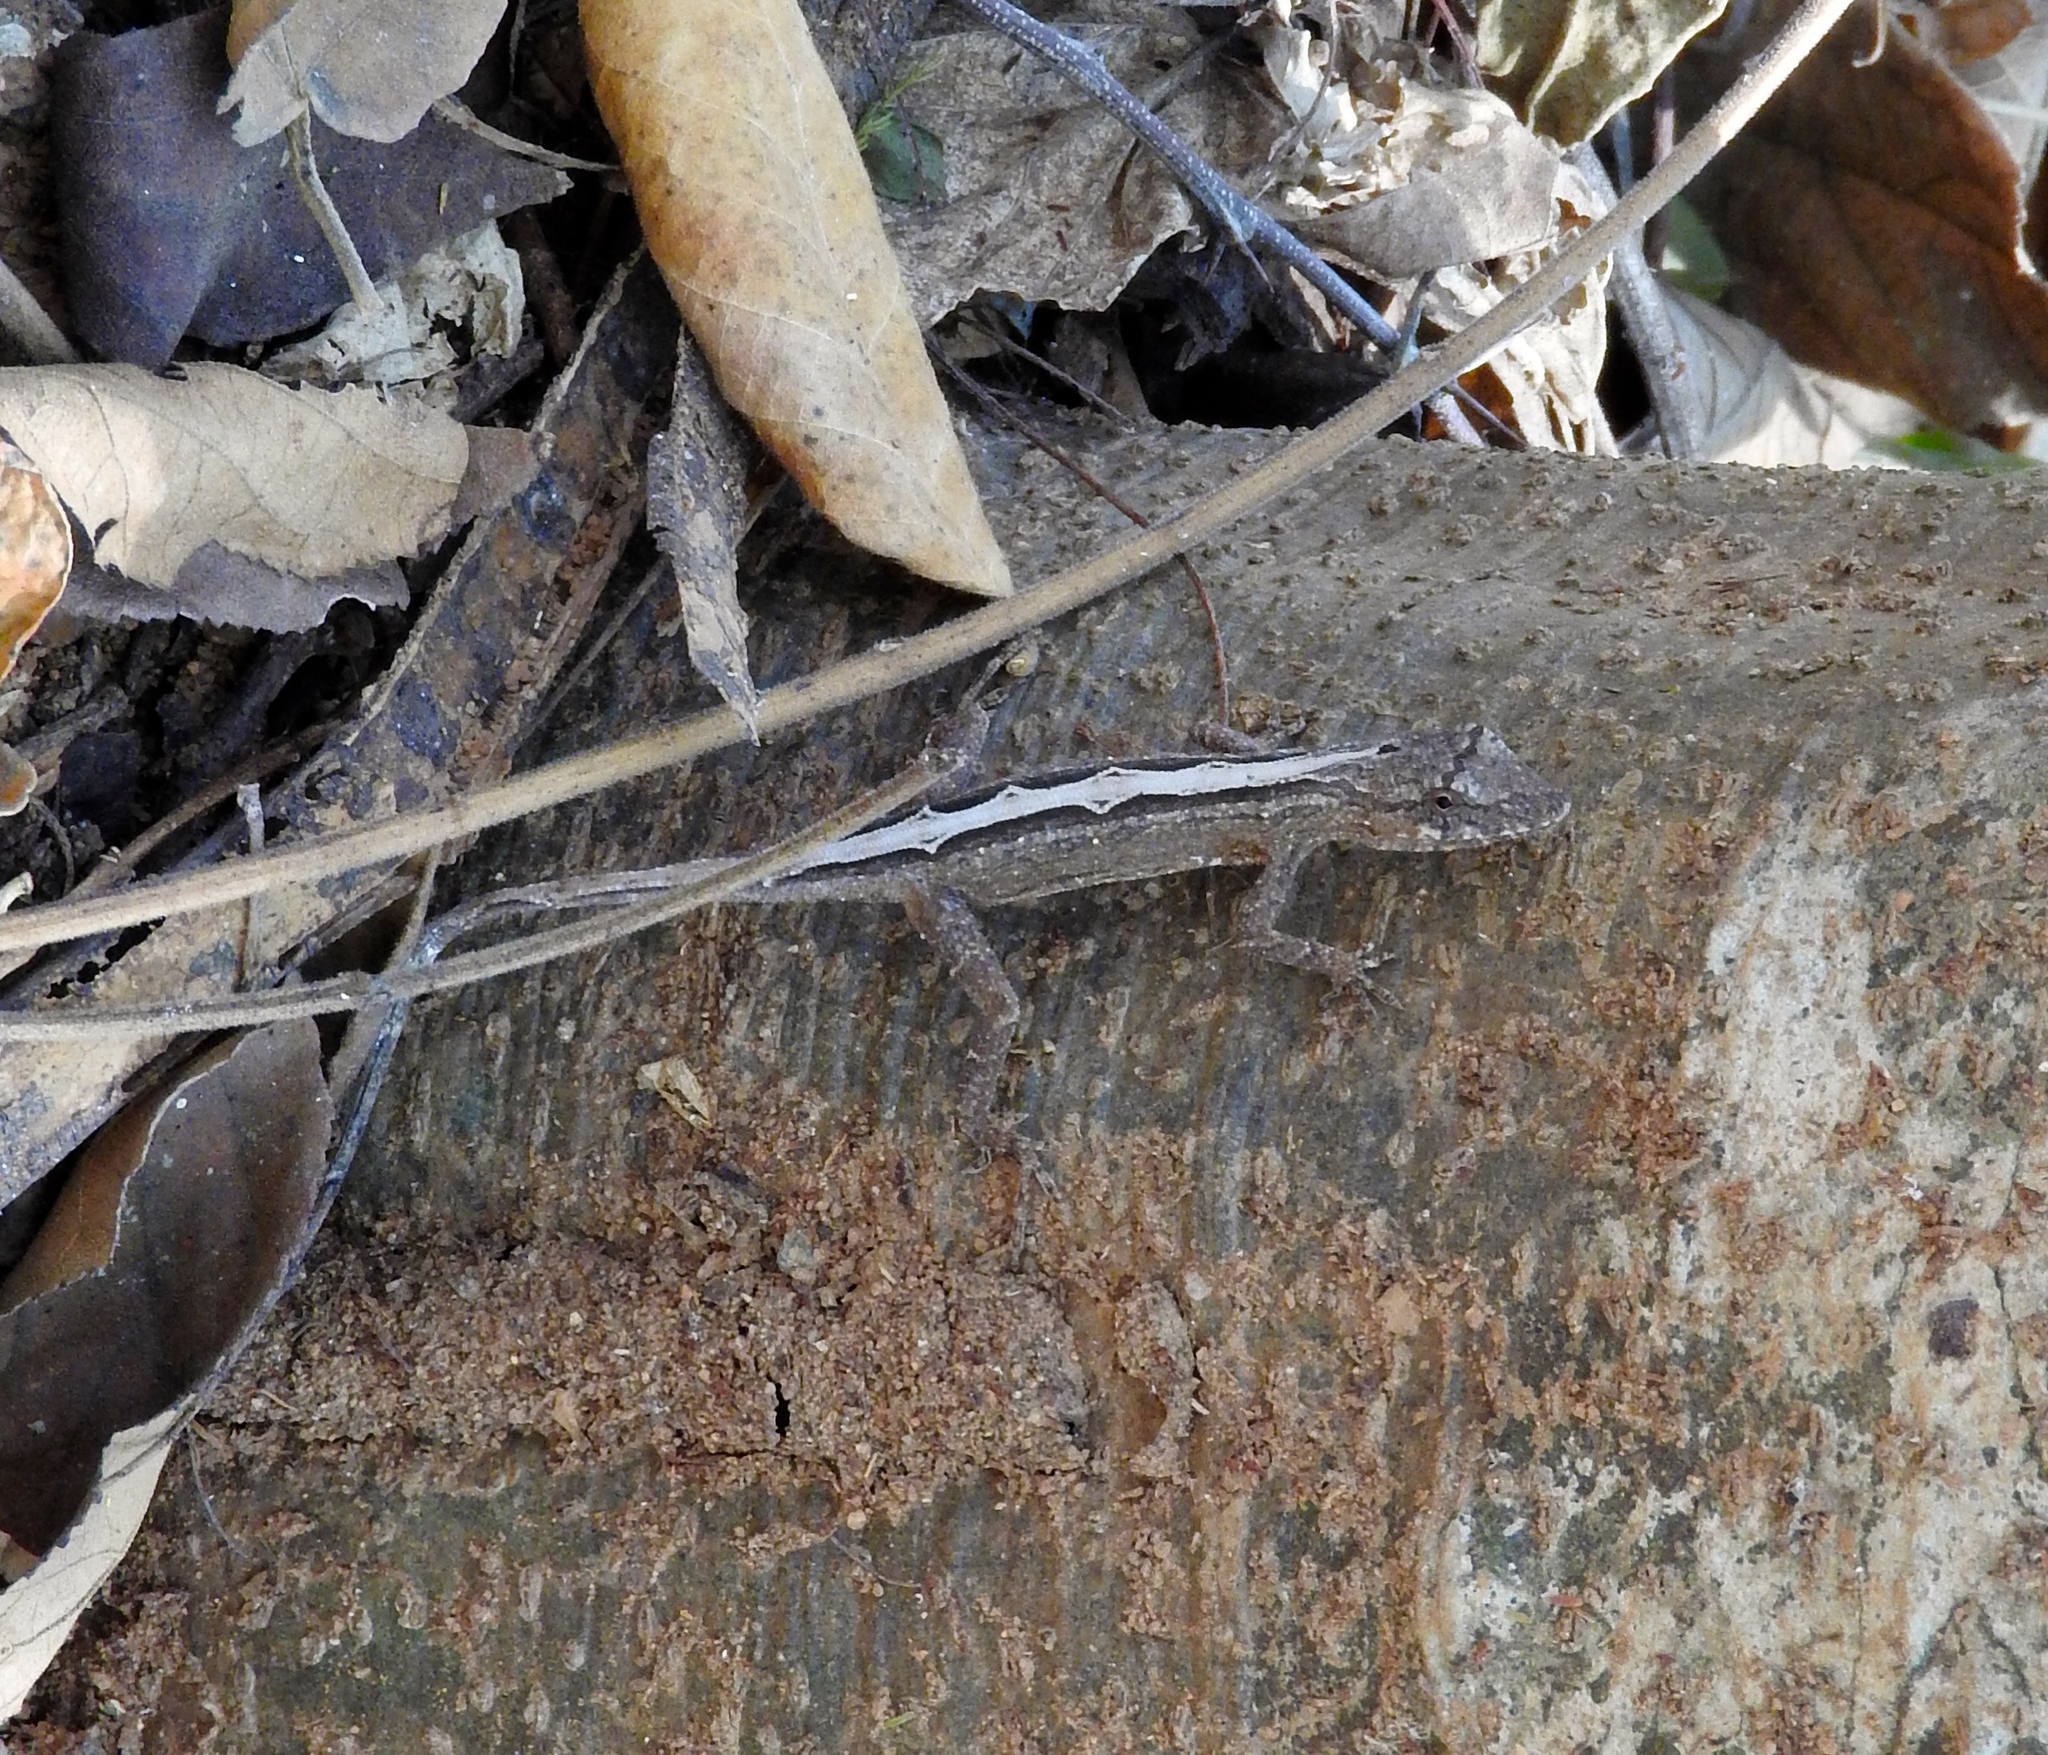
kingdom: Animalia
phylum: Chordata
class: Squamata
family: Dactyloidae
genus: Anolis
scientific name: Anolis nebulosus
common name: Clouded anole
